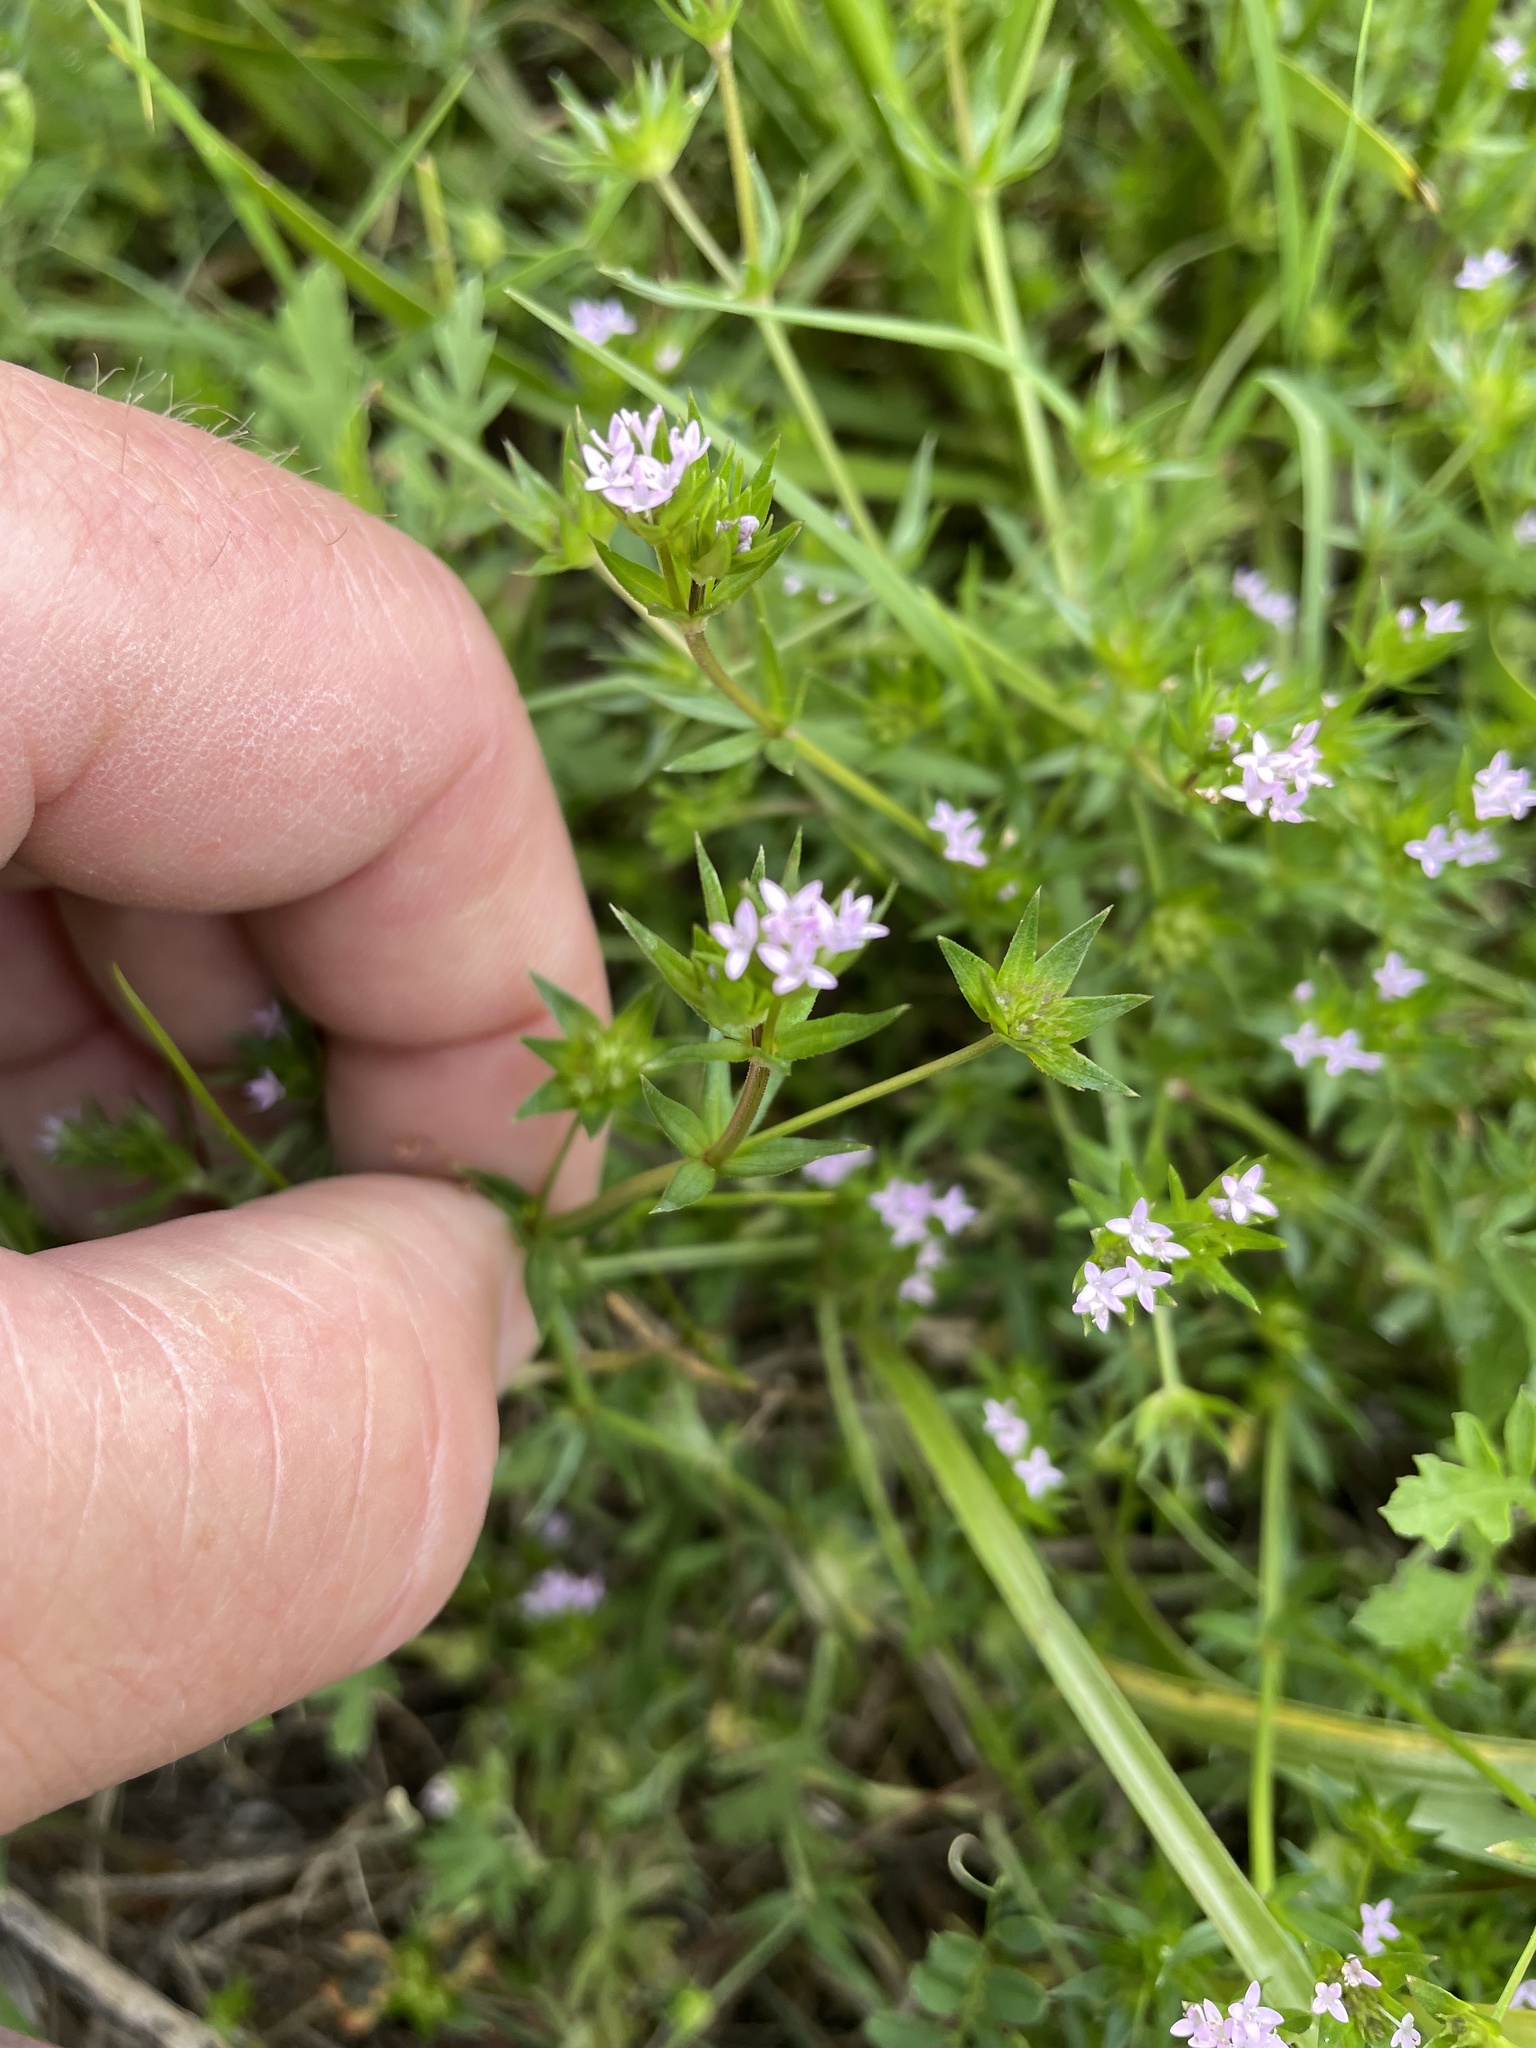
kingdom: Plantae
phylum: Tracheophyta
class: Magnoliopsida
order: Gentianales
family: Rubiaceae
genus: Sherardia
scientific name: Sherardia arvensis
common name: Field madder
